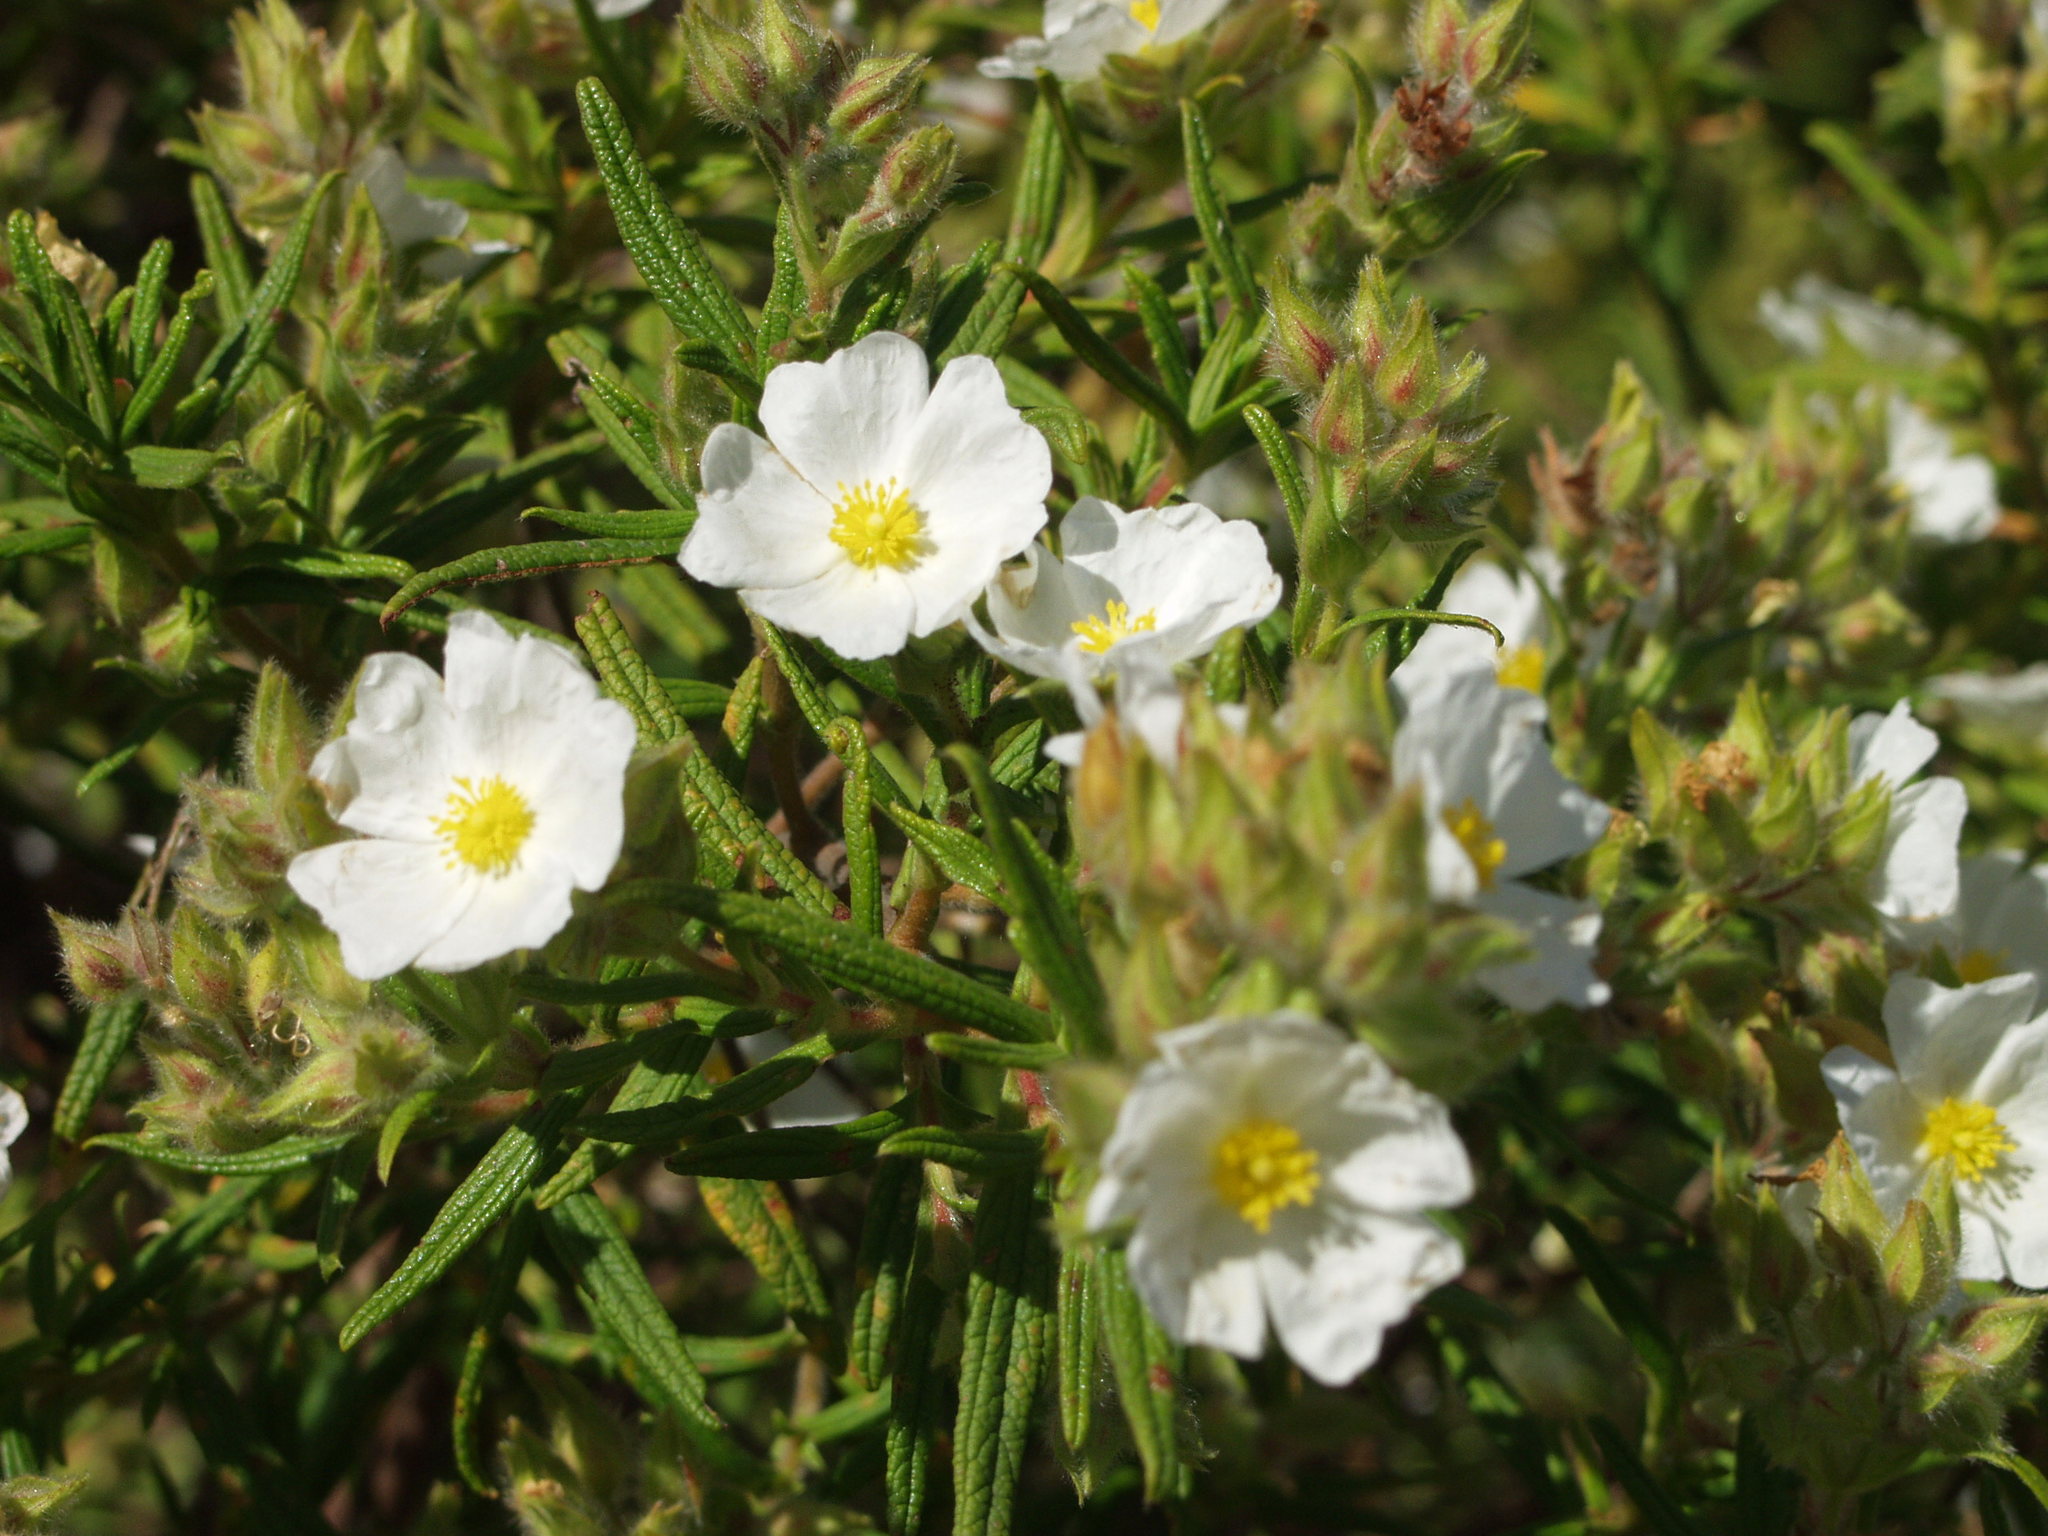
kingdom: Plantae
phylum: Tracheophyta
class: Magnoliopsida
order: Malvales
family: Cistaceae
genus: Cistus
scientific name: Cistus monspeliensis
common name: Montpelier cistus
